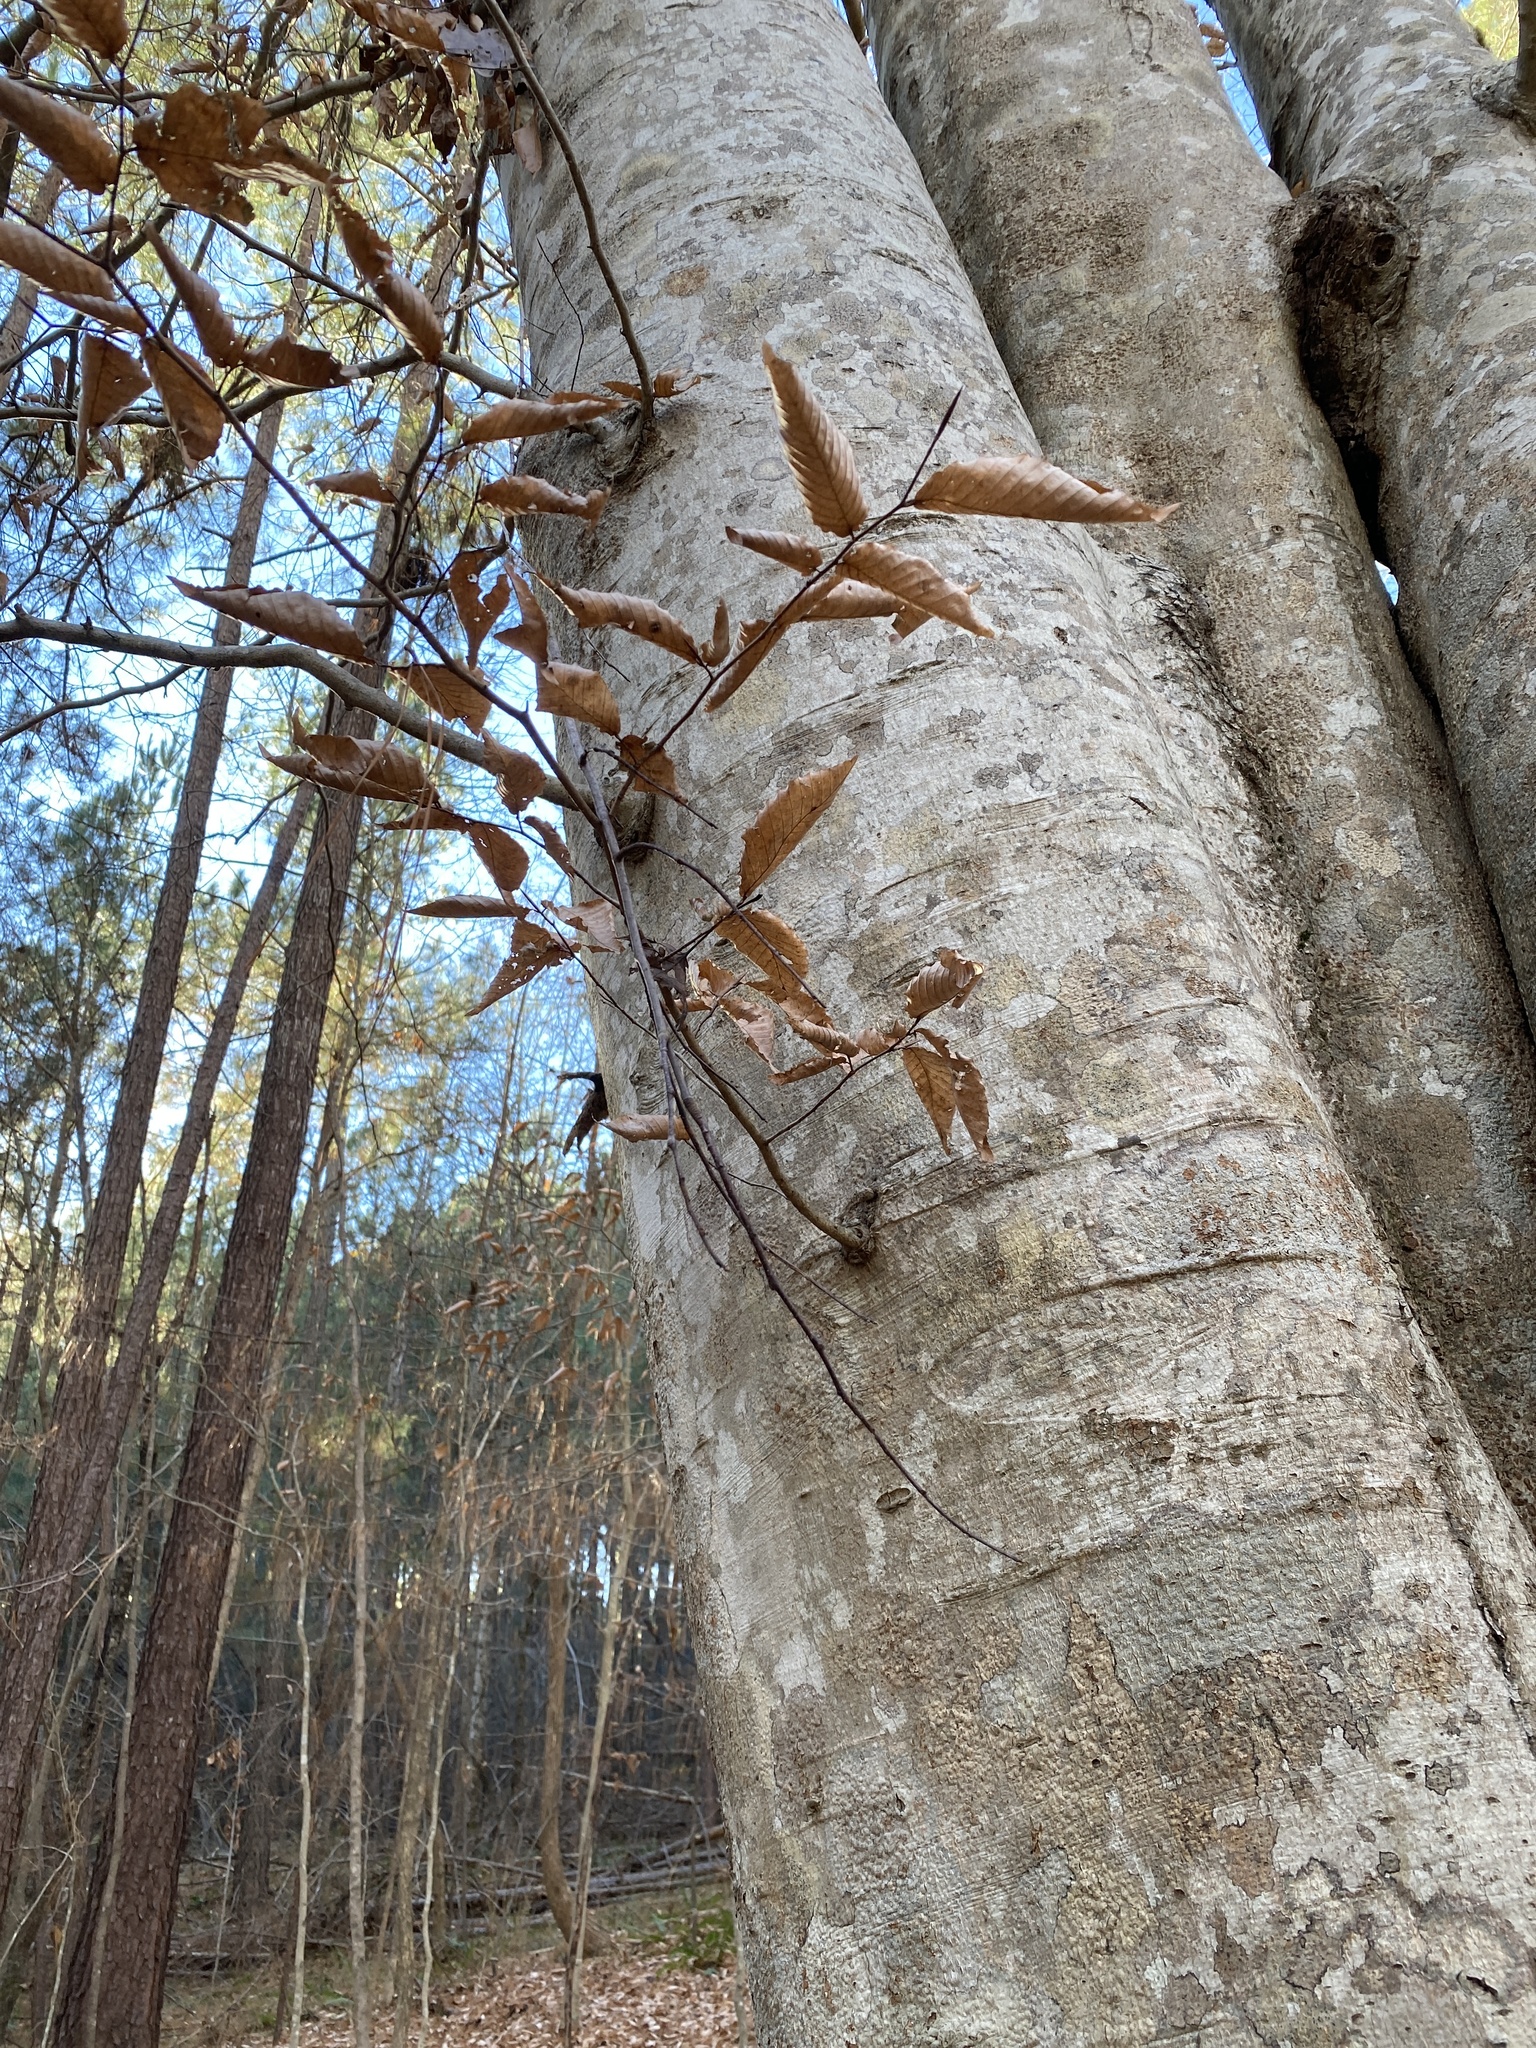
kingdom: Plantae
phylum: Tracheophyta
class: Magnoliopsida
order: Fagales
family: Fagaceae
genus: Fagus
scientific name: Fagus grandifolia
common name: American beech
